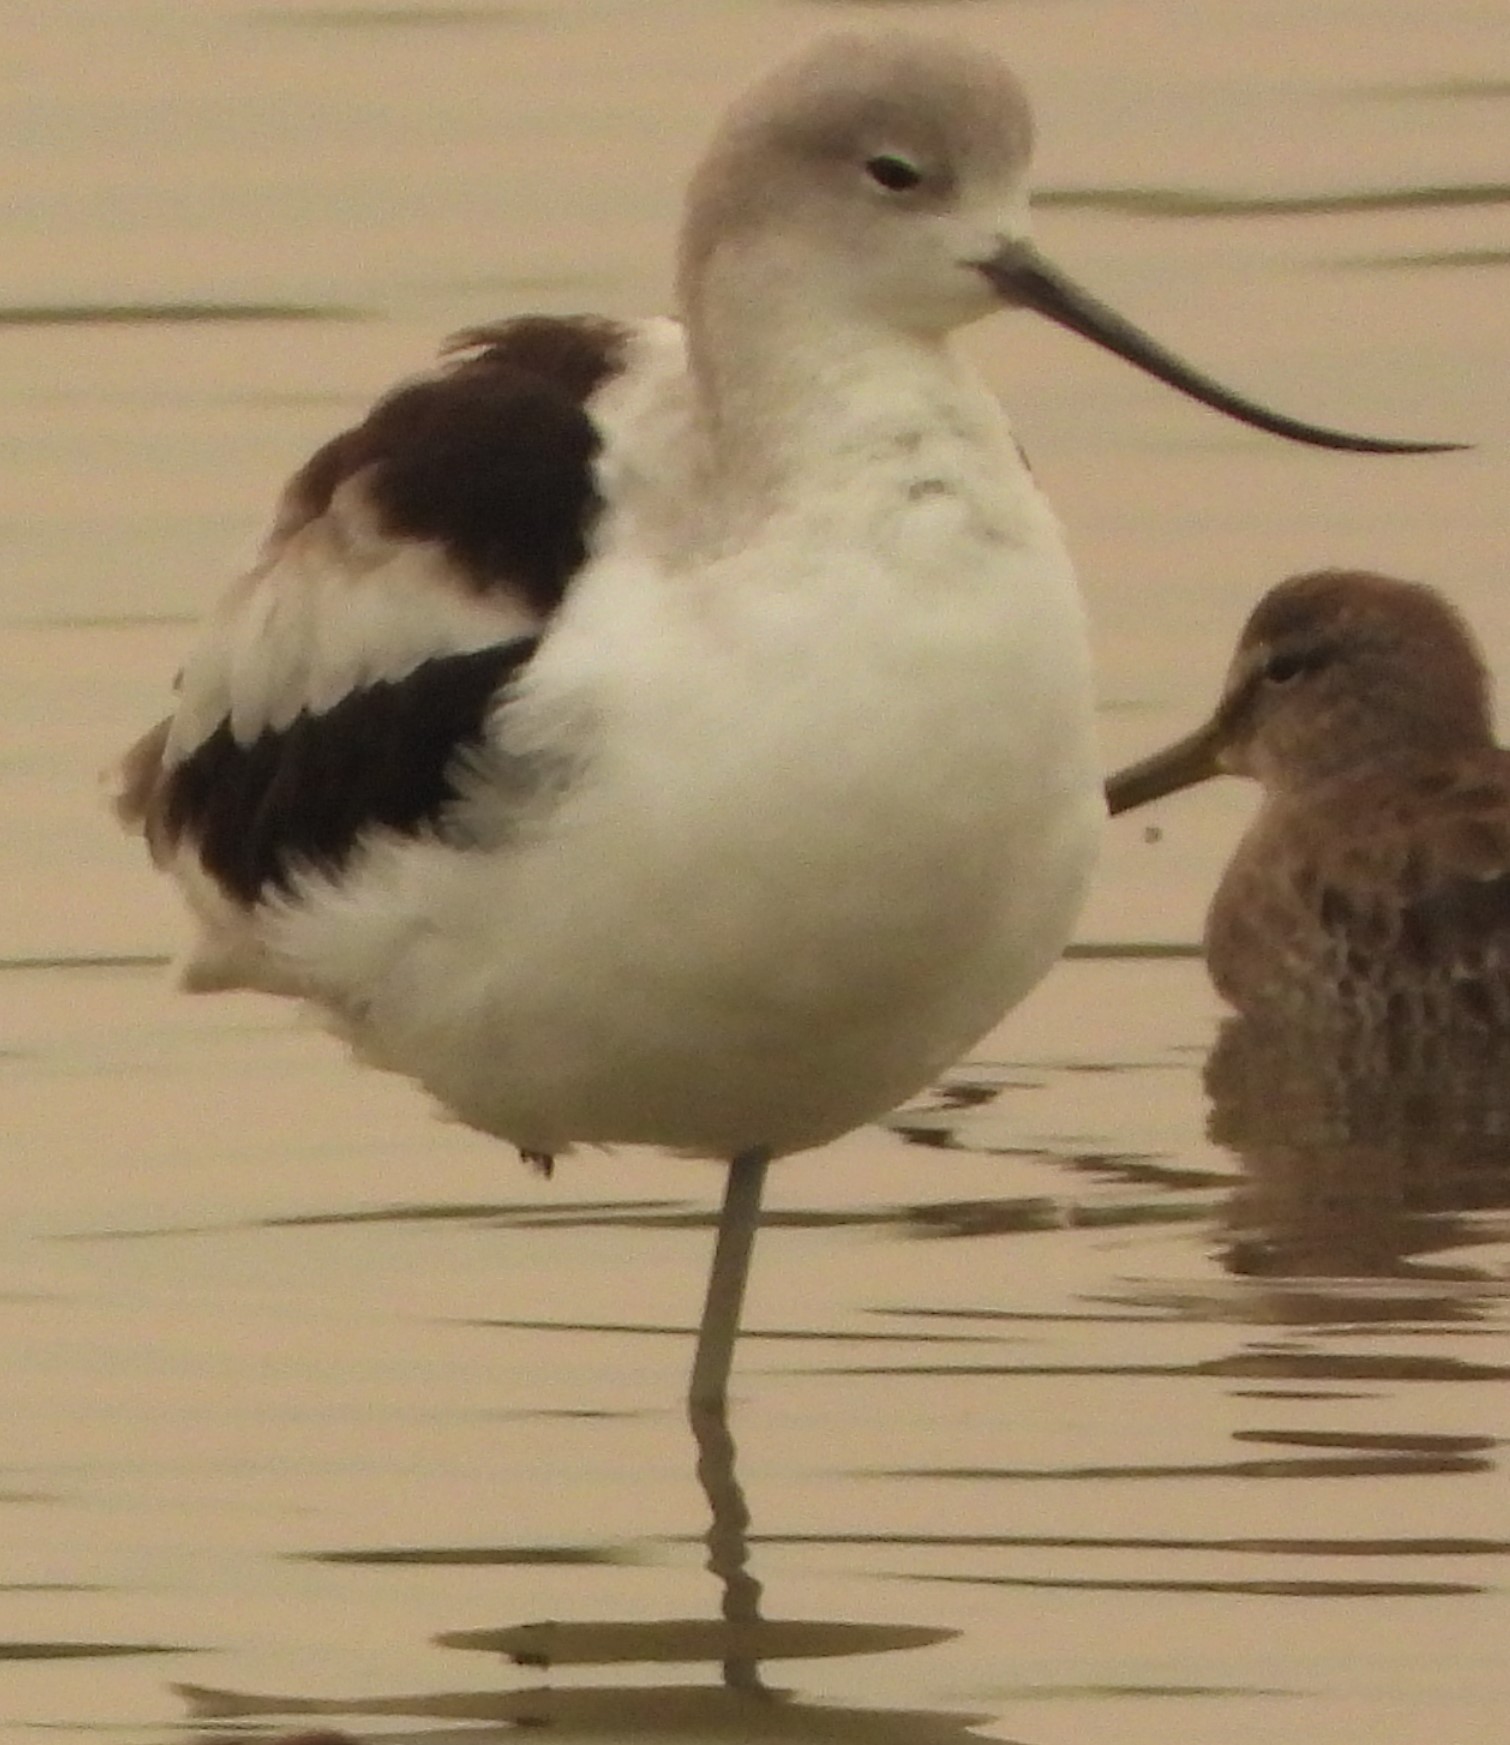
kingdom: Animalia
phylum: Chordata
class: Aves
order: Charadriiformes
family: Recurvirostridae
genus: Recurvirostra
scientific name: Recurvirostra americana
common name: American avocet
